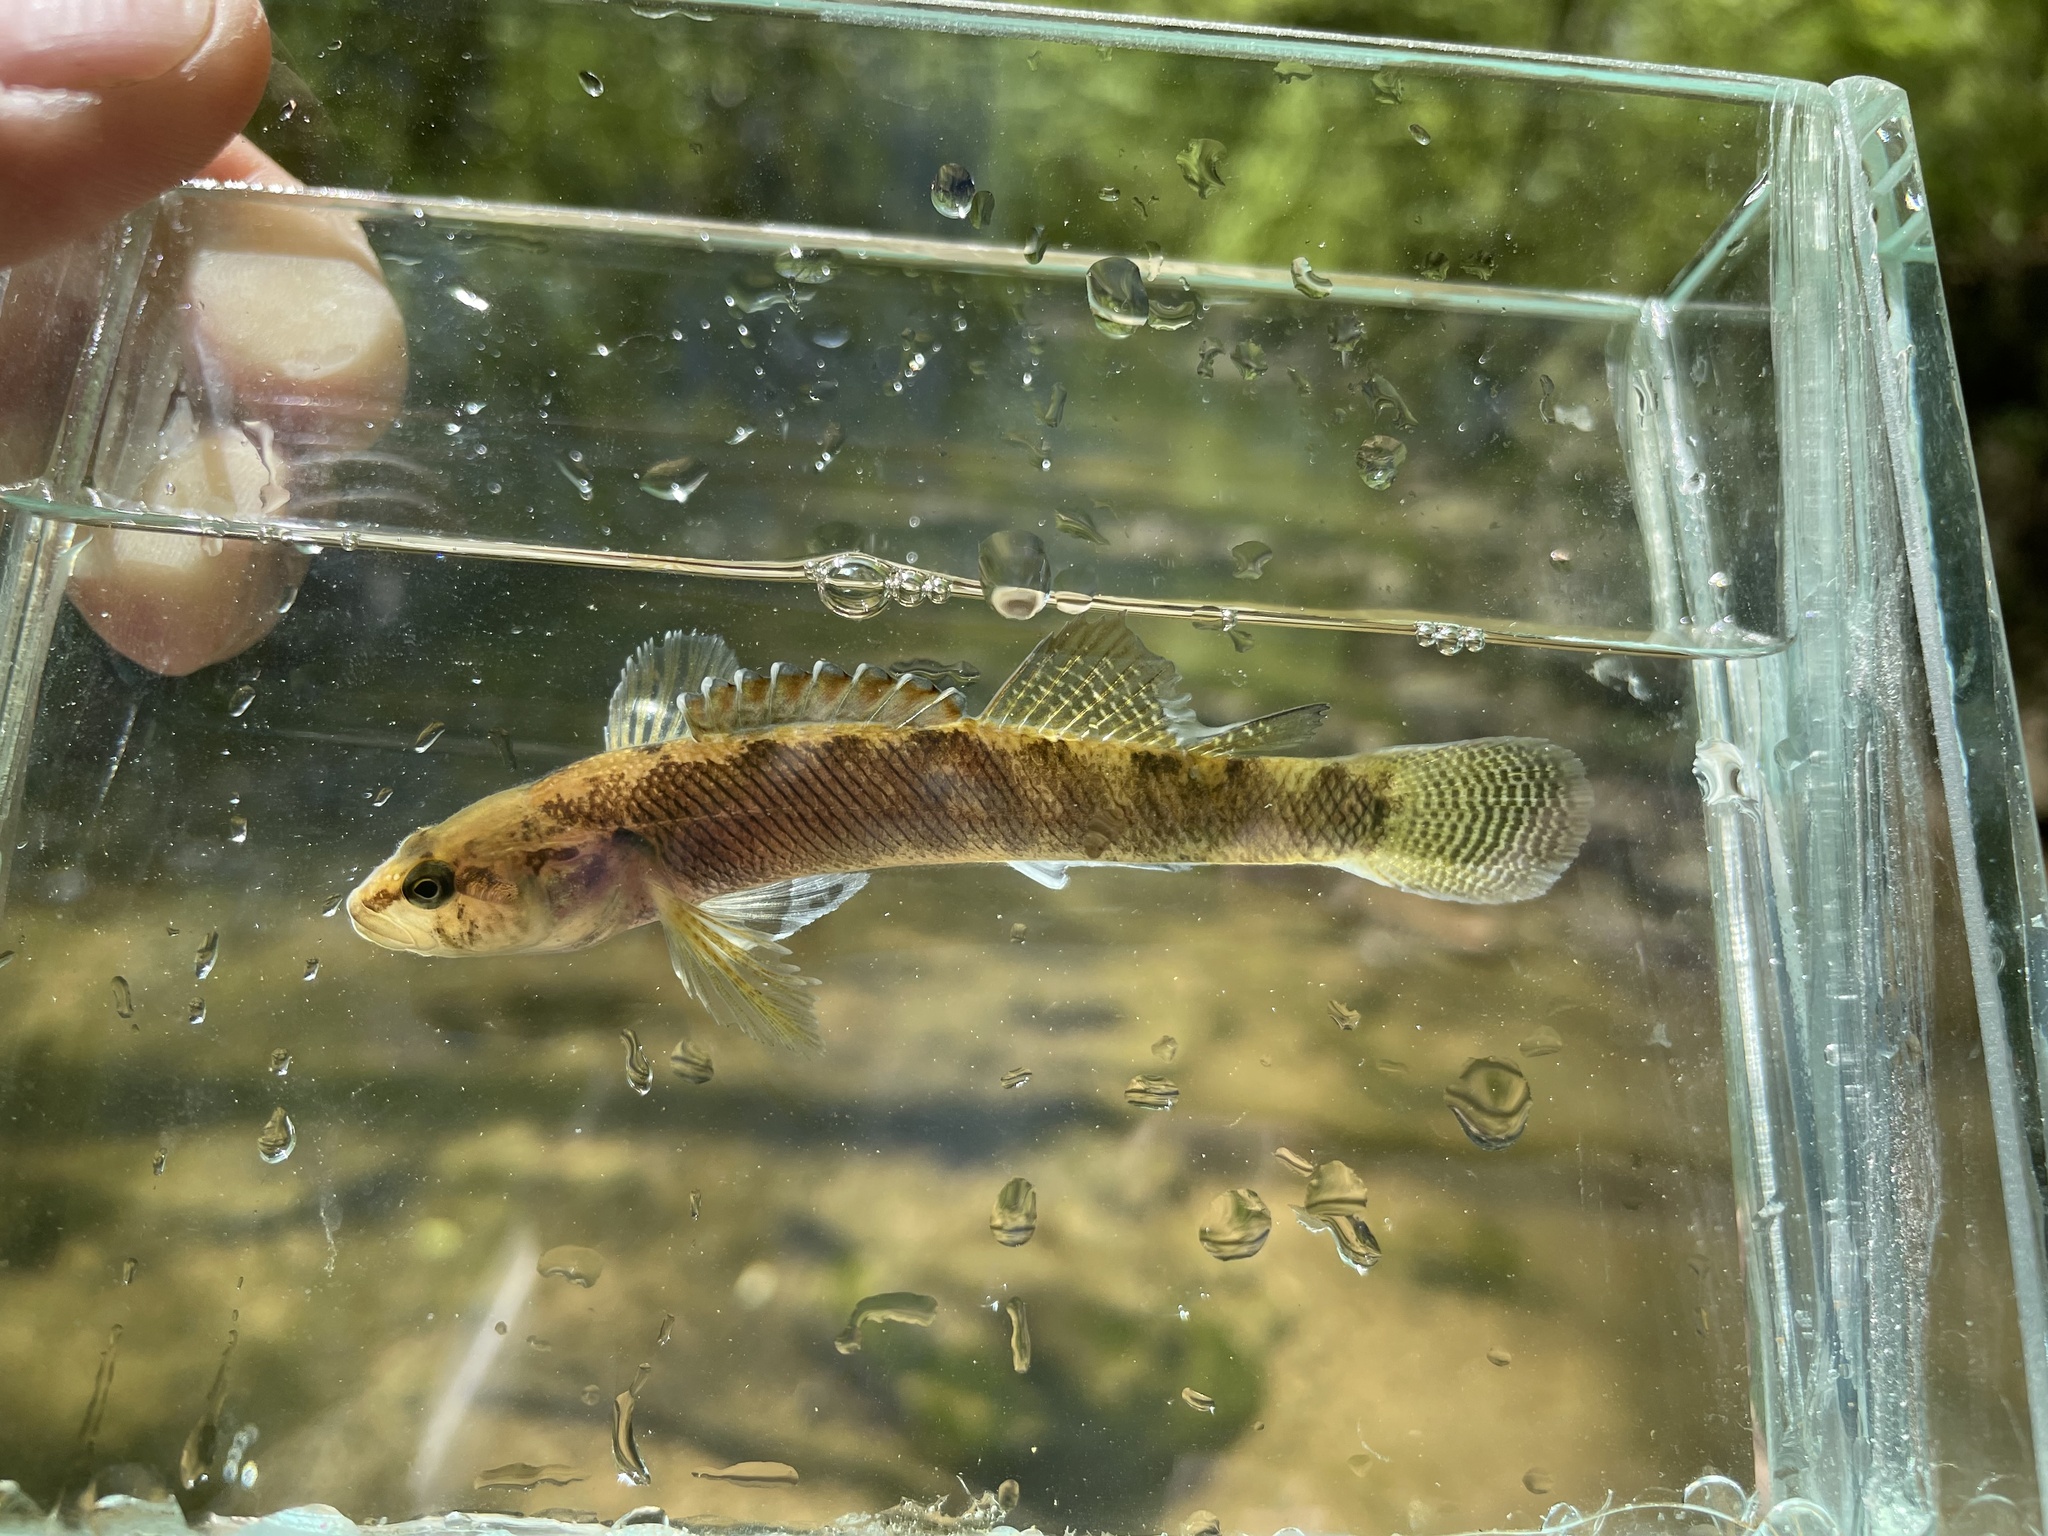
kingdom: Animalia
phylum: Chordata
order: Perciformes
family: Percidae
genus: Etheostoma
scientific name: Etheostoma nigripinne
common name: Blackfin darter
